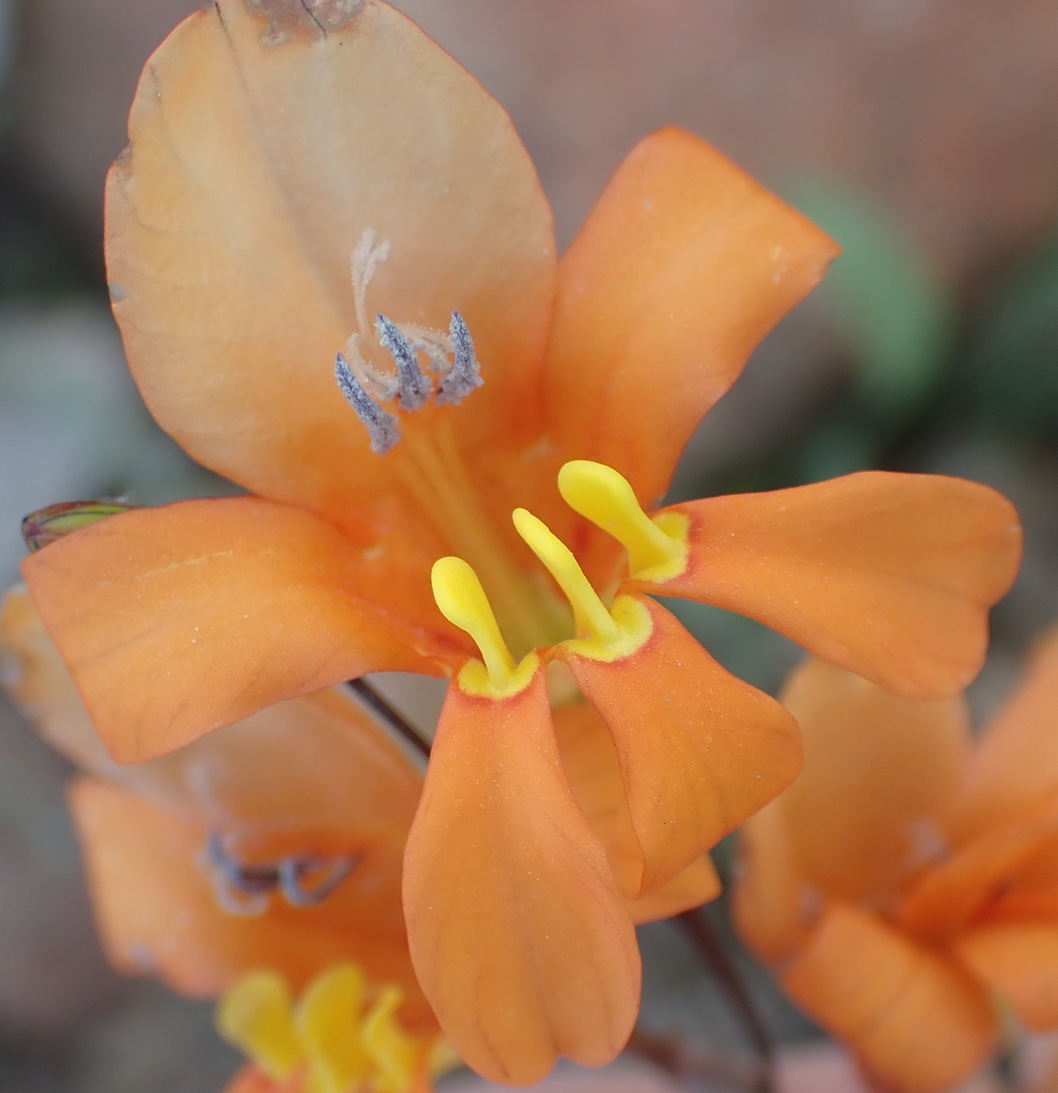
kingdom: Plantae
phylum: Tracheophyta
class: Liliopsida
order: Asparagales
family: Iridaceae
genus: Tritonia
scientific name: Tritonia securigera
